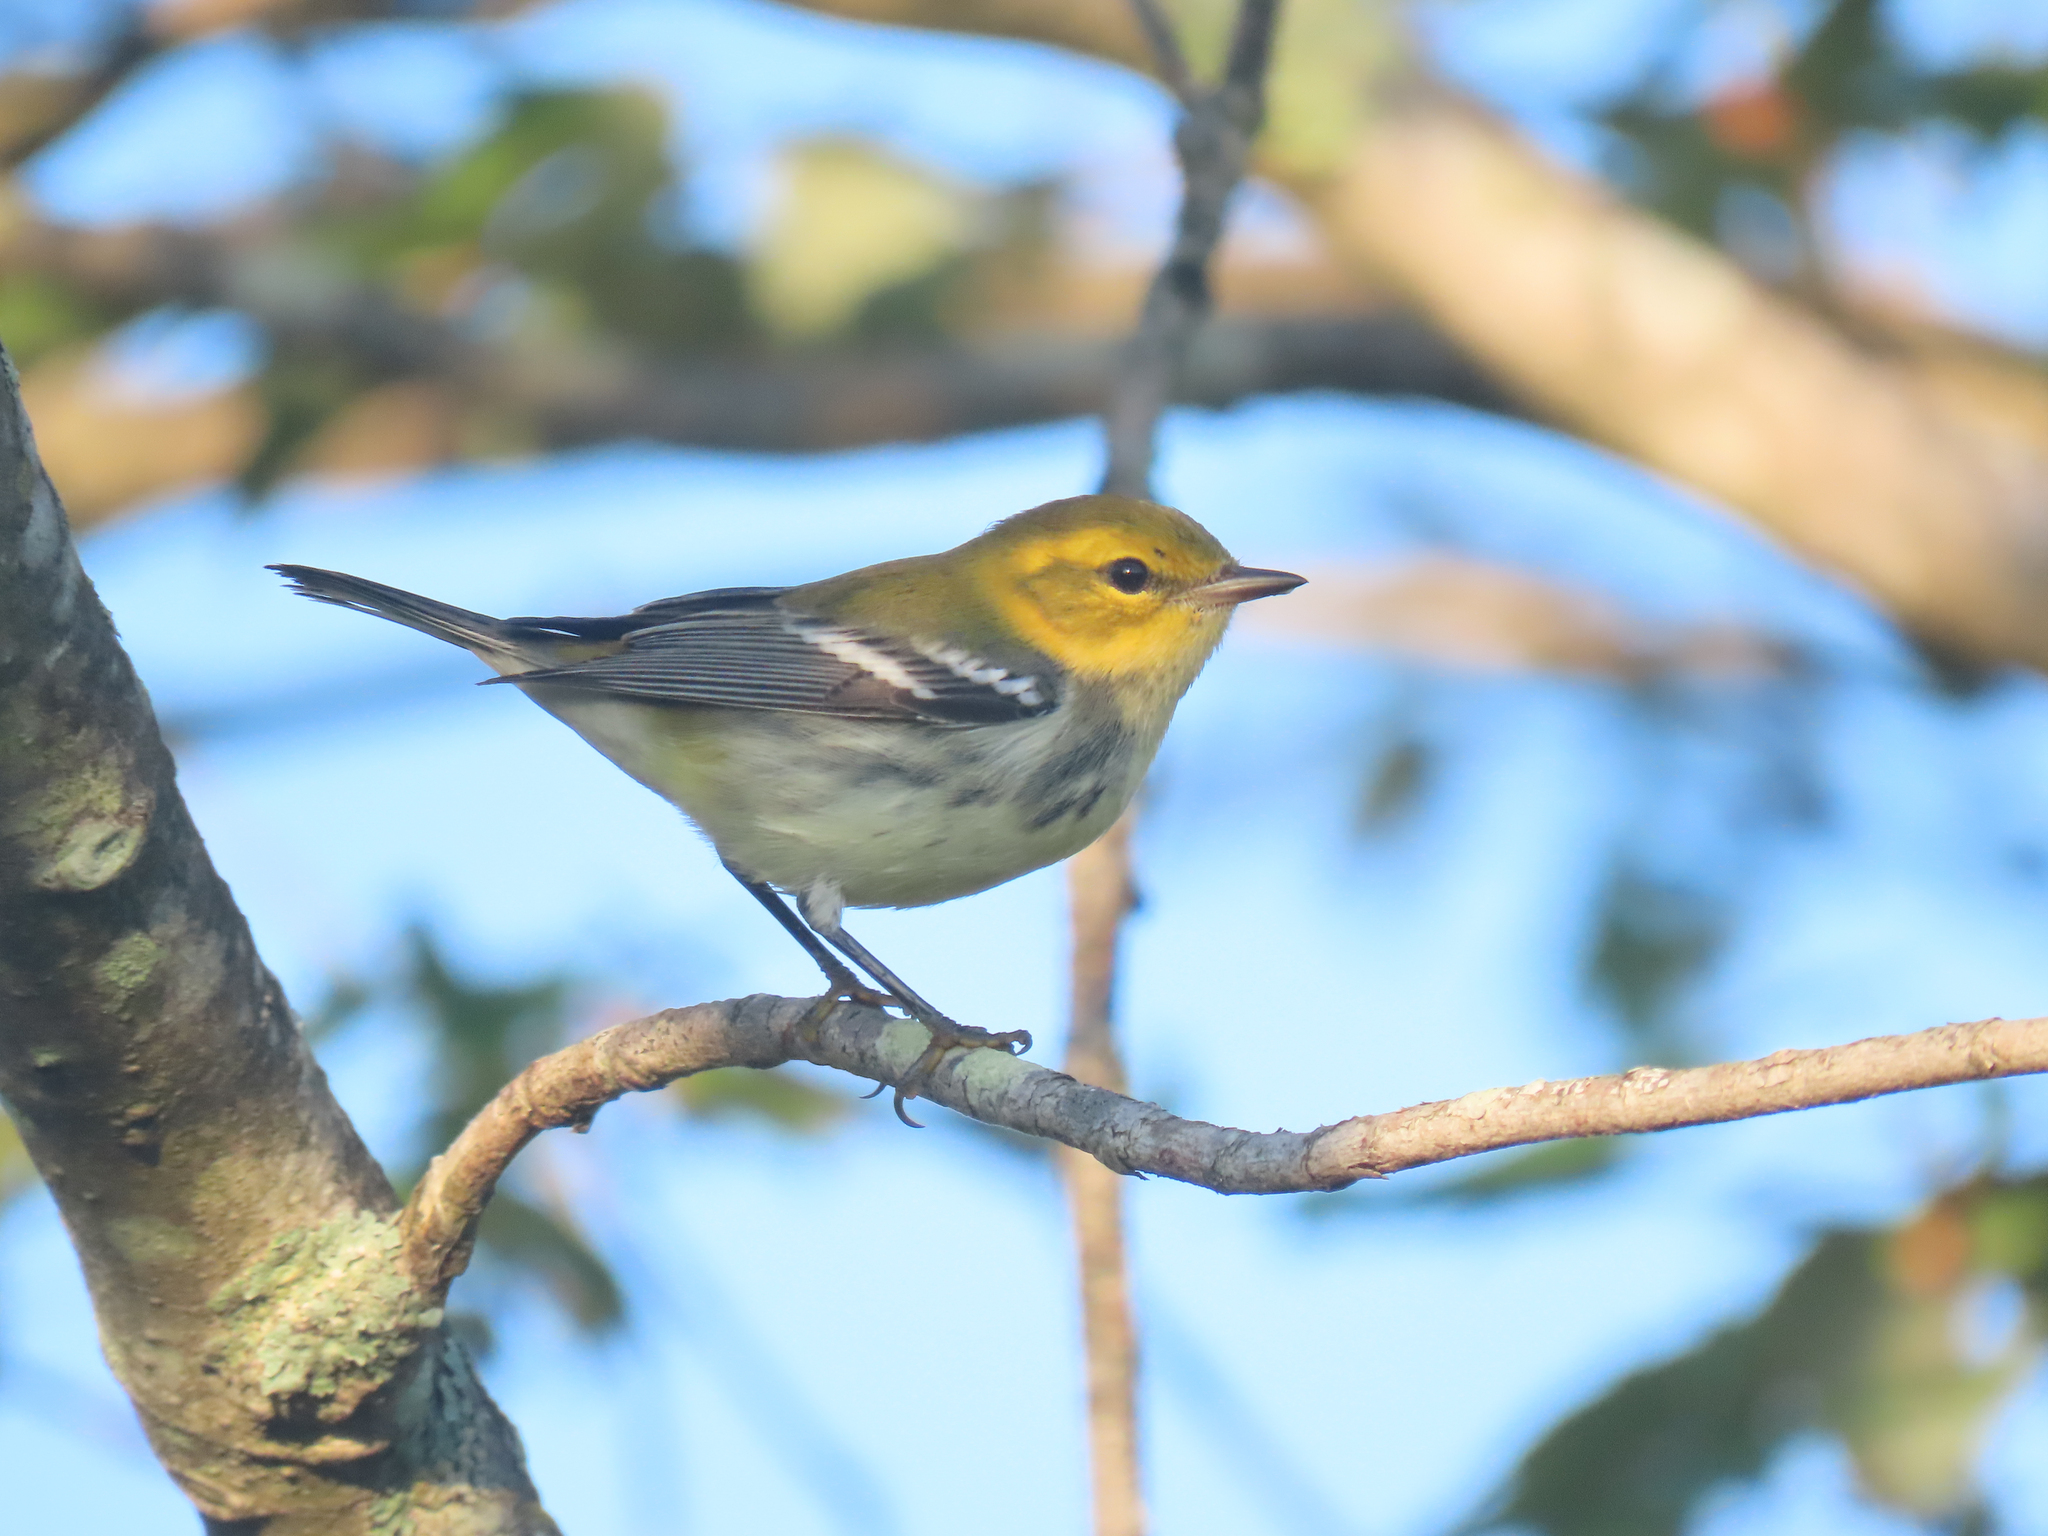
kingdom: Animalia
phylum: Chordata
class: Aves
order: Passeriformes
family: Parulidae
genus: Setophaga
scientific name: Setophaga virens
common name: Black-throated green warbler
